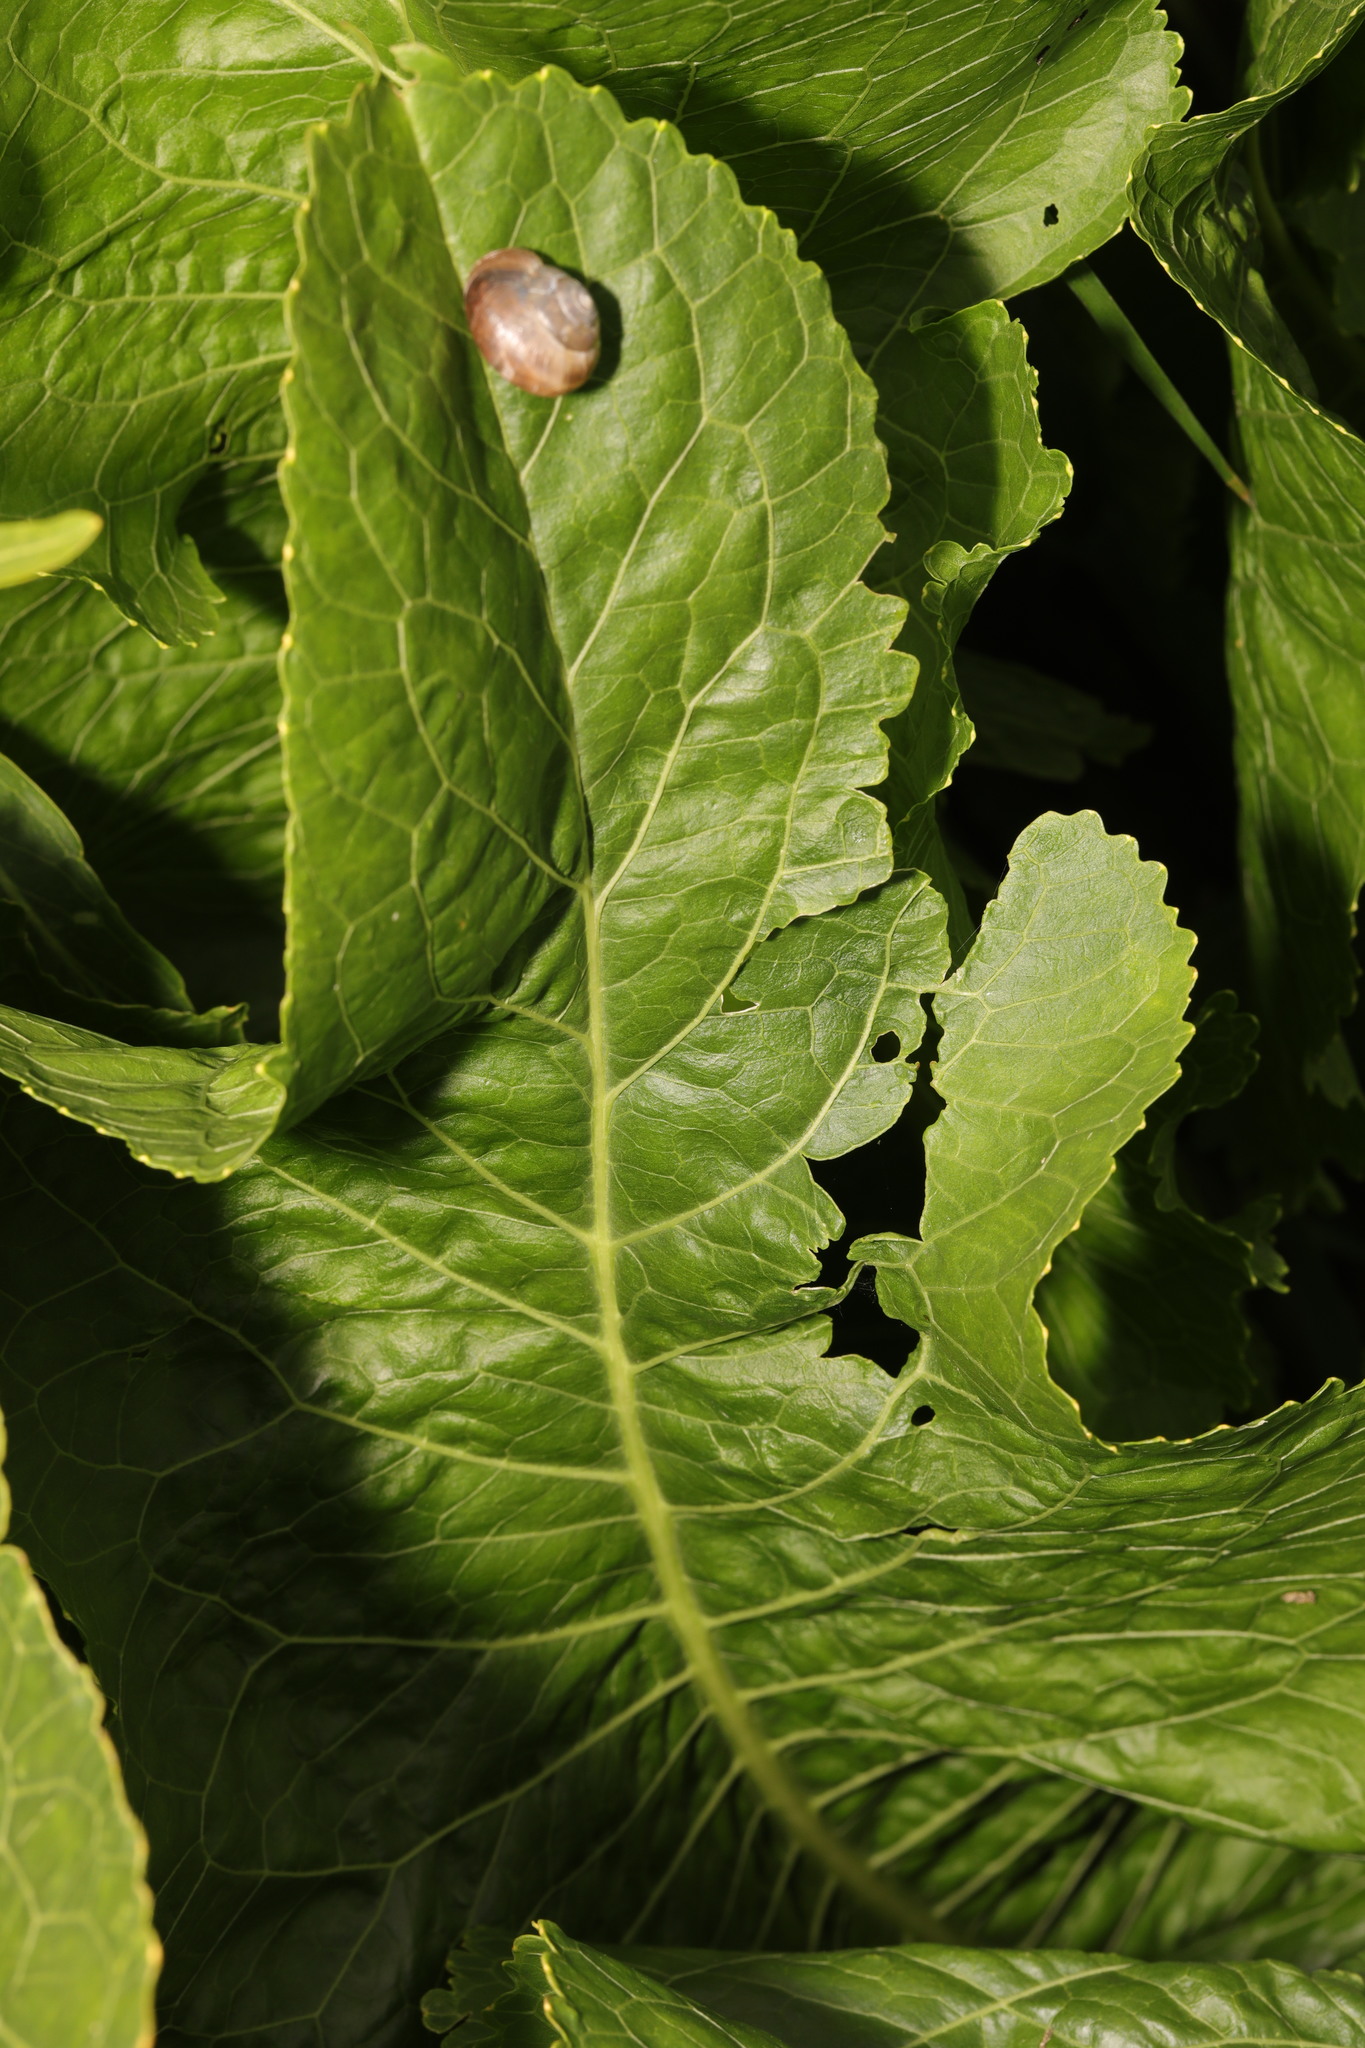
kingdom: Plantae
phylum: Tracheophyta
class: Magnoliopsida
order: Brassicales
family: Brassicaceae
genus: Armoracia
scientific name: Armoracia rusticana
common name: Horseradish
